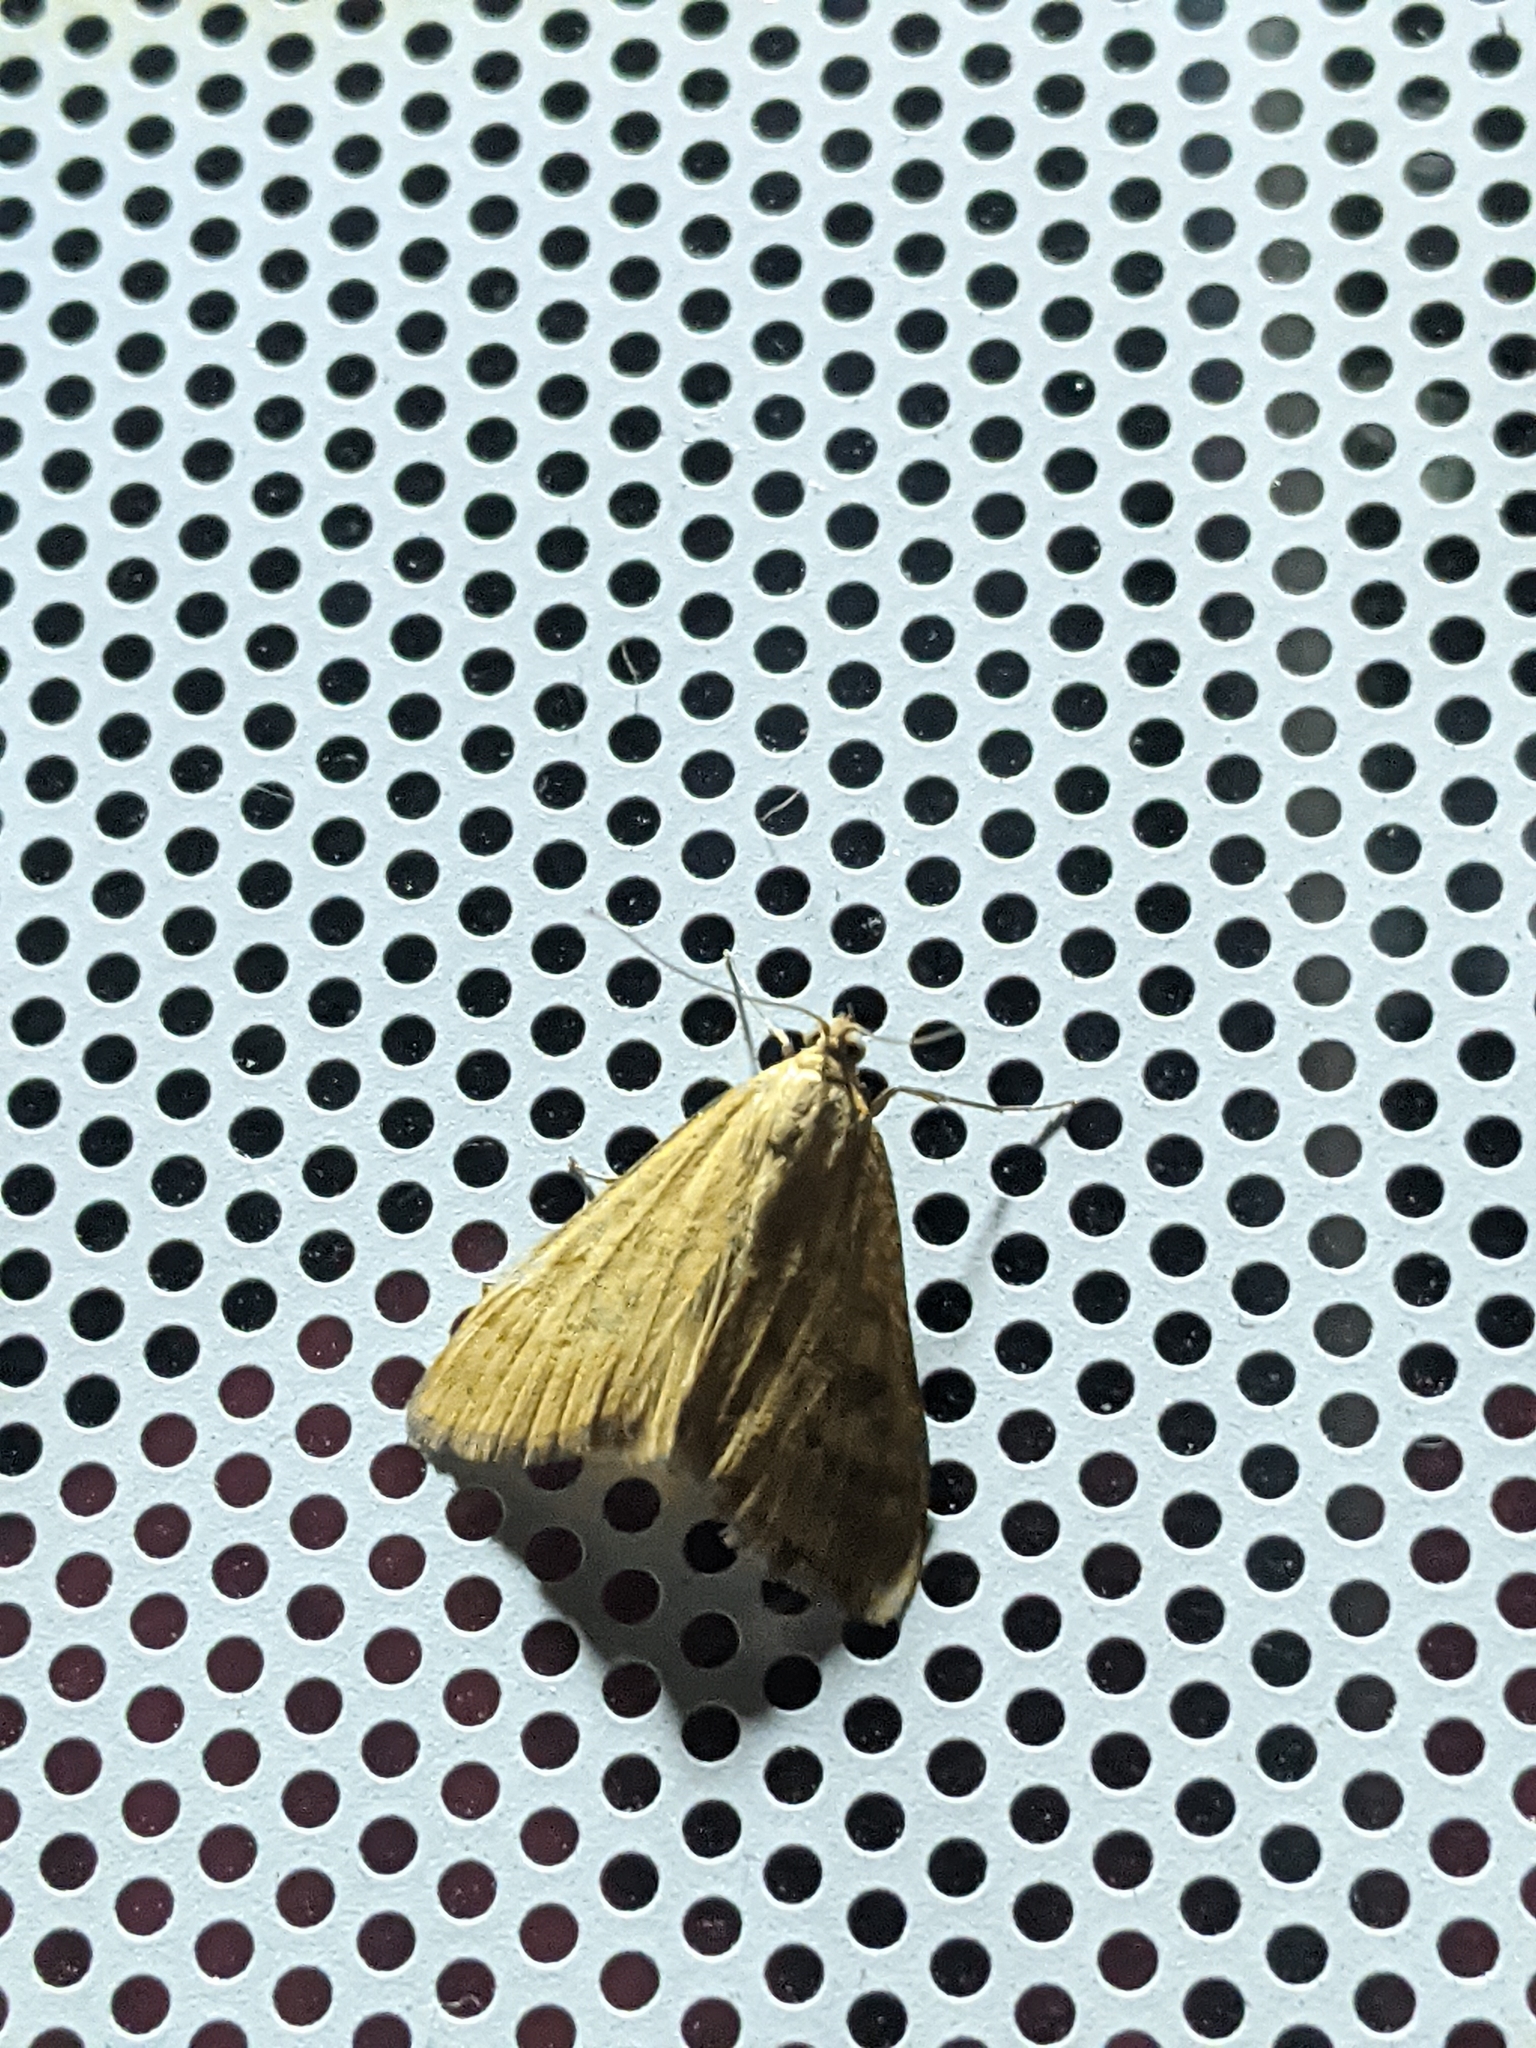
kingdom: Animalia
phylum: Arthropoda
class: Insecta
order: Lepidoptera
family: Crambidae
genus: Pyrausta
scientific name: Pyrausta despicata
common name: Straw-barred pearl
